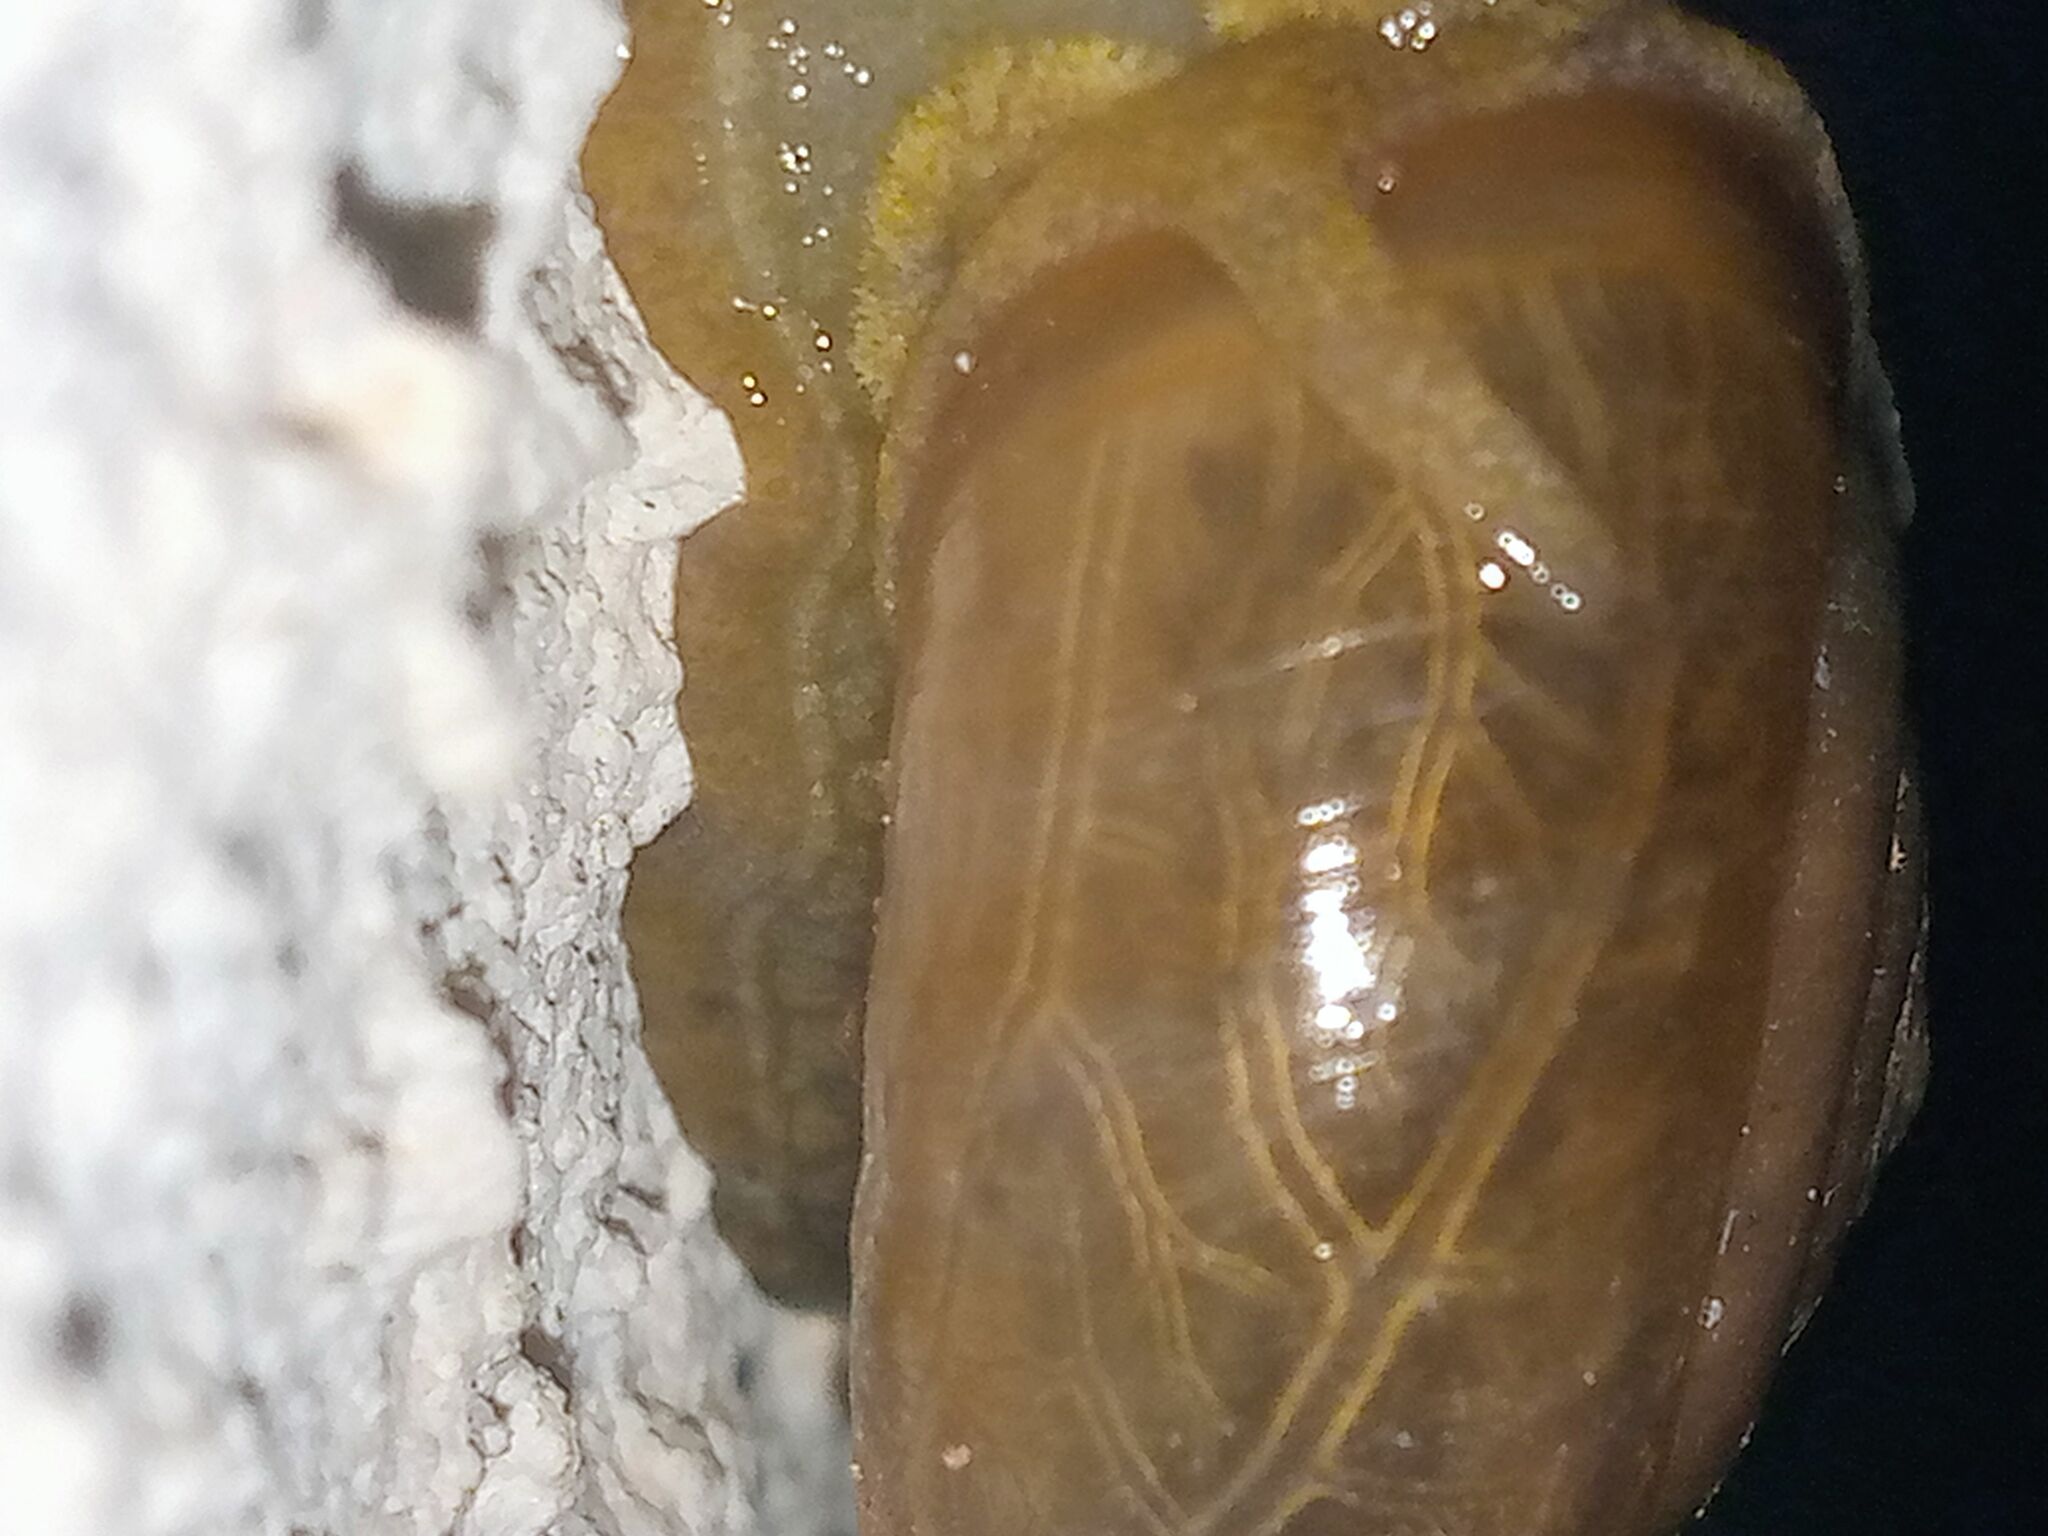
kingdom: Animalia
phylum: Mollusca
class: Gastropoda
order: Stylommatophora
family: Ariophantidae
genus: Macrochlamys
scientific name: Macrochlamys indica
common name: Horntail snail
